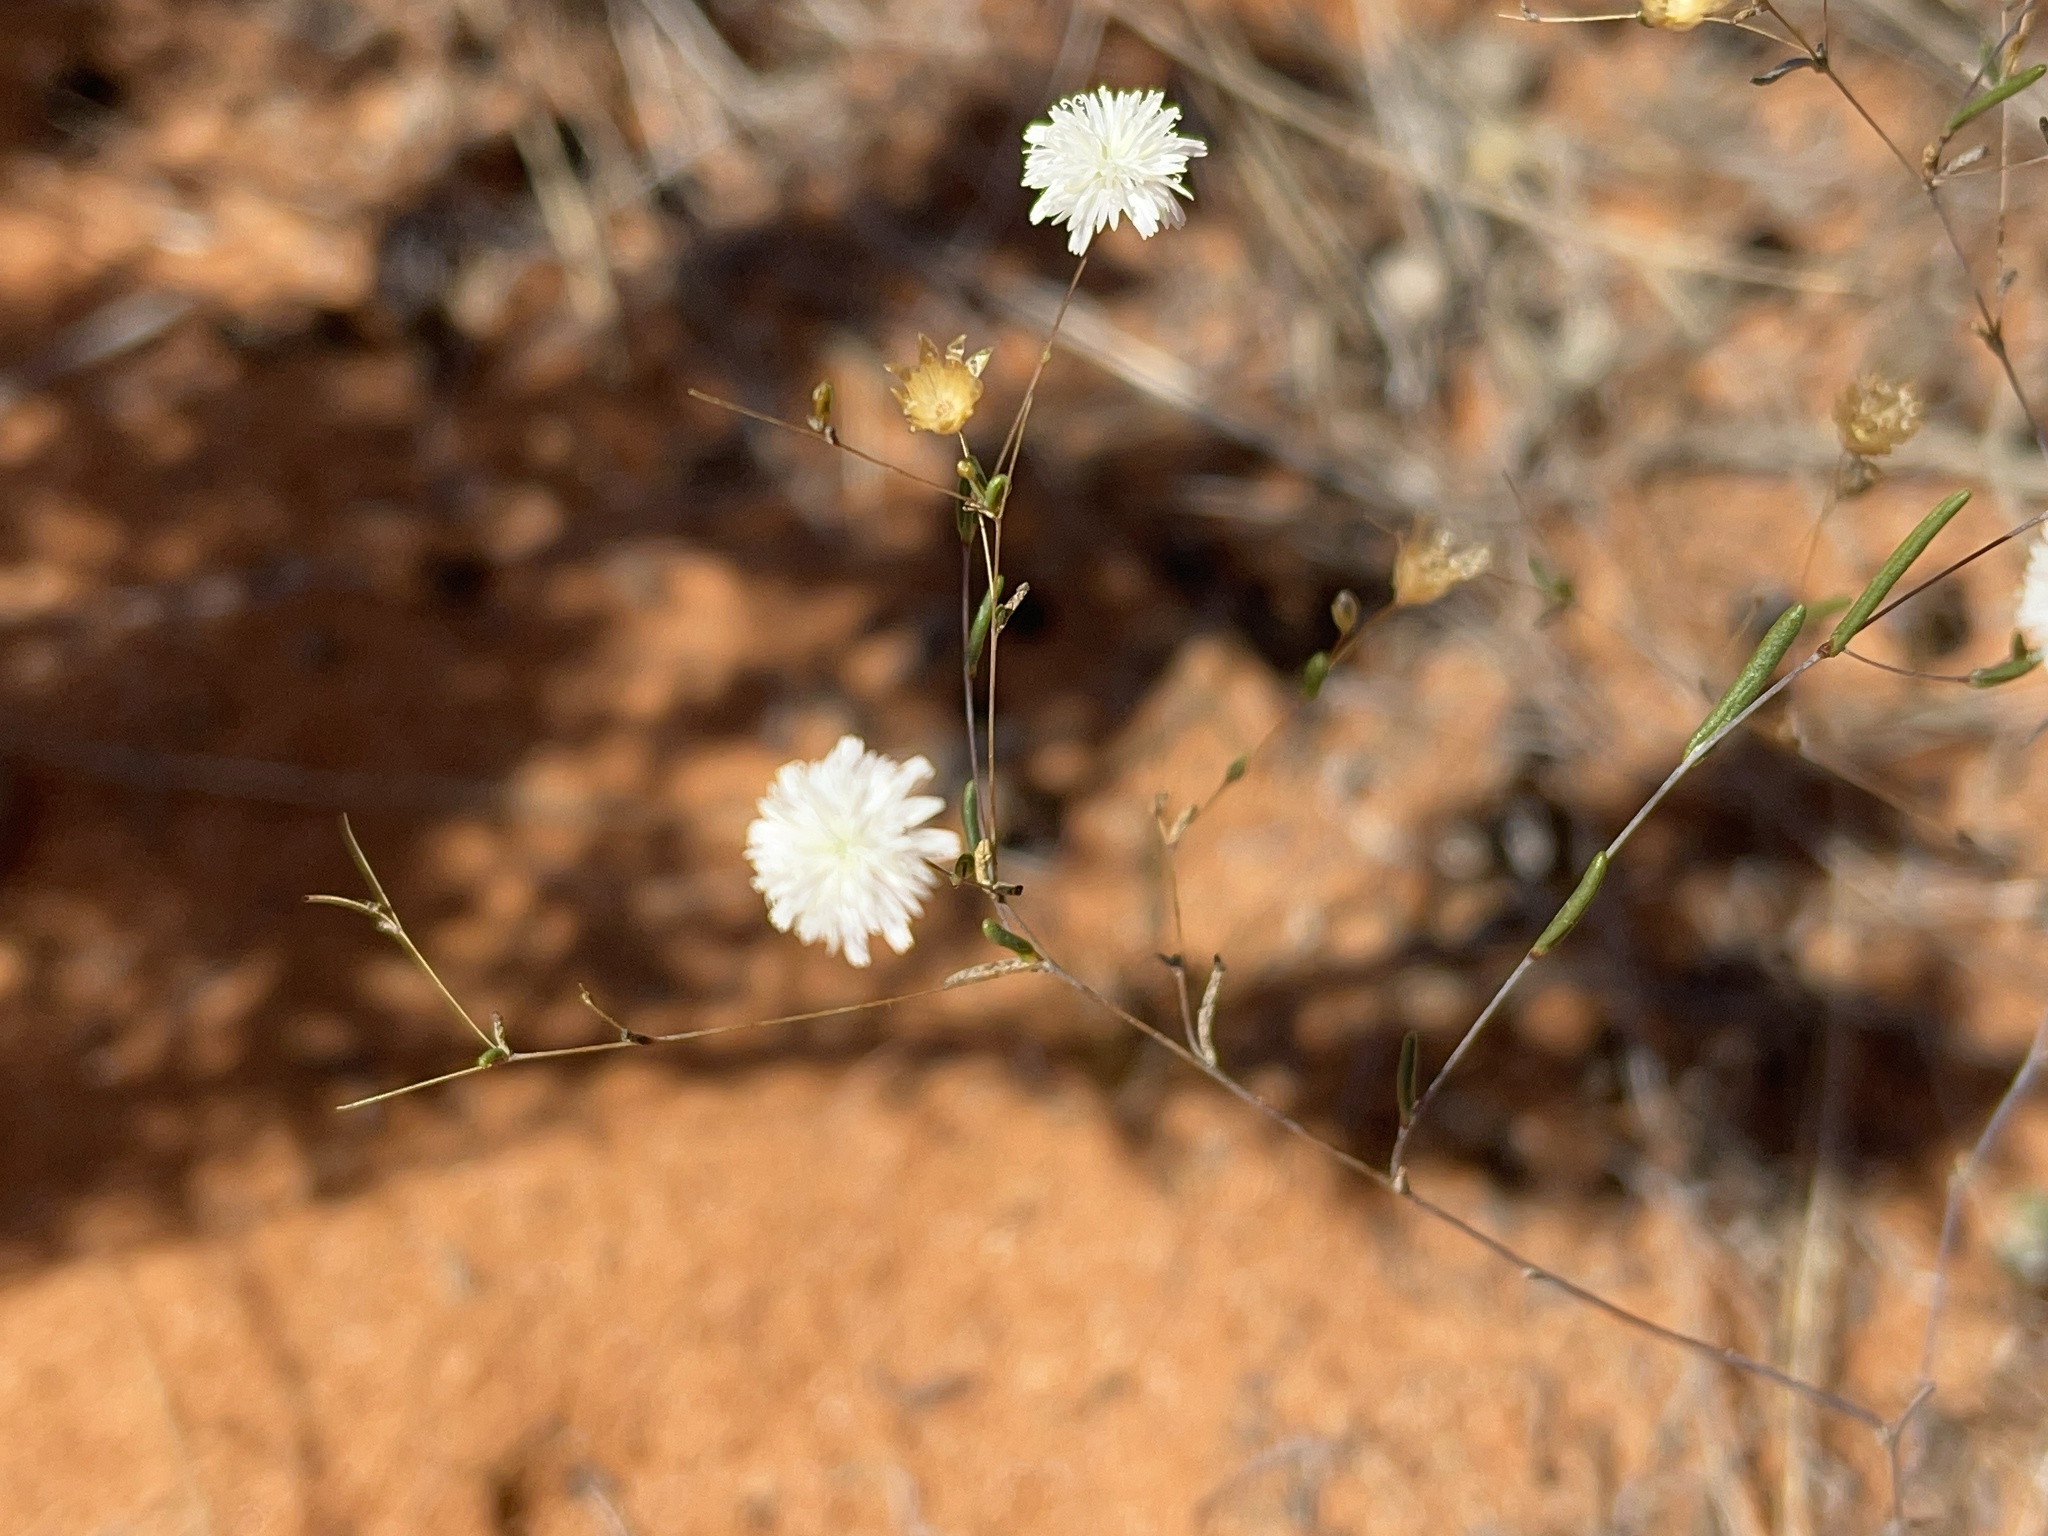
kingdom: Plantae
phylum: Tracheophyta
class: Magnoliopsida
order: Asterales
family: Asteraceae
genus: Siemssenia
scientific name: Siemssenia capillaris
